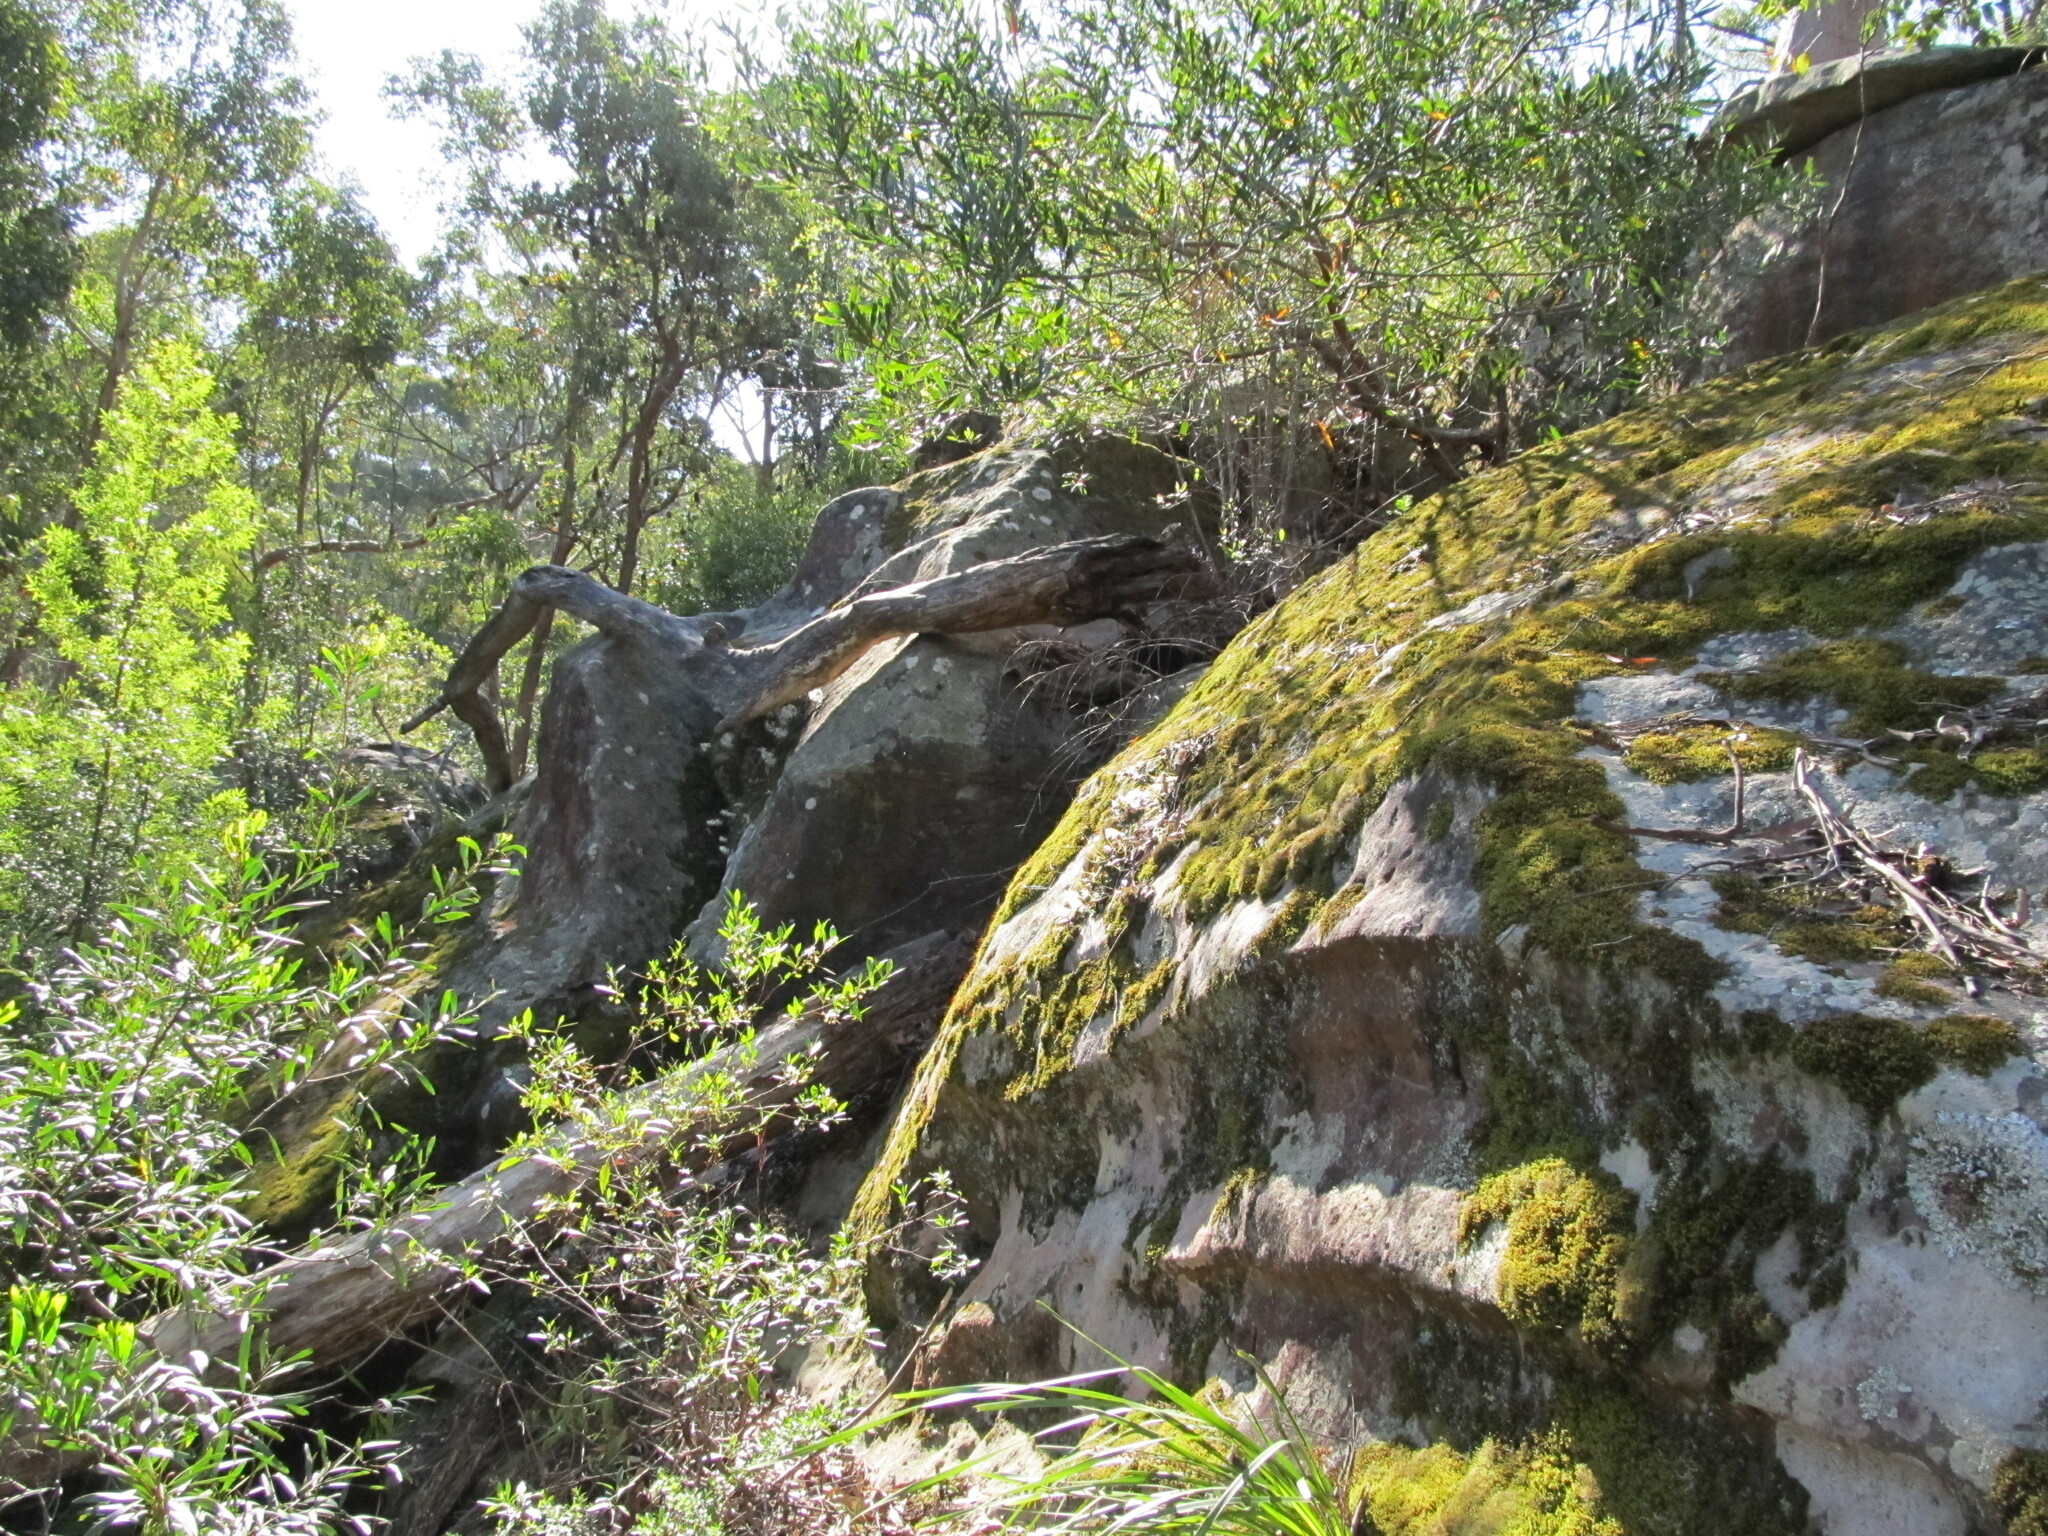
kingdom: Plantae
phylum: Tracheophyta
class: Liliopsida
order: Asparagales
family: Orchidaceae
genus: Dendrobium
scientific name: Dendrobium linguiforme
